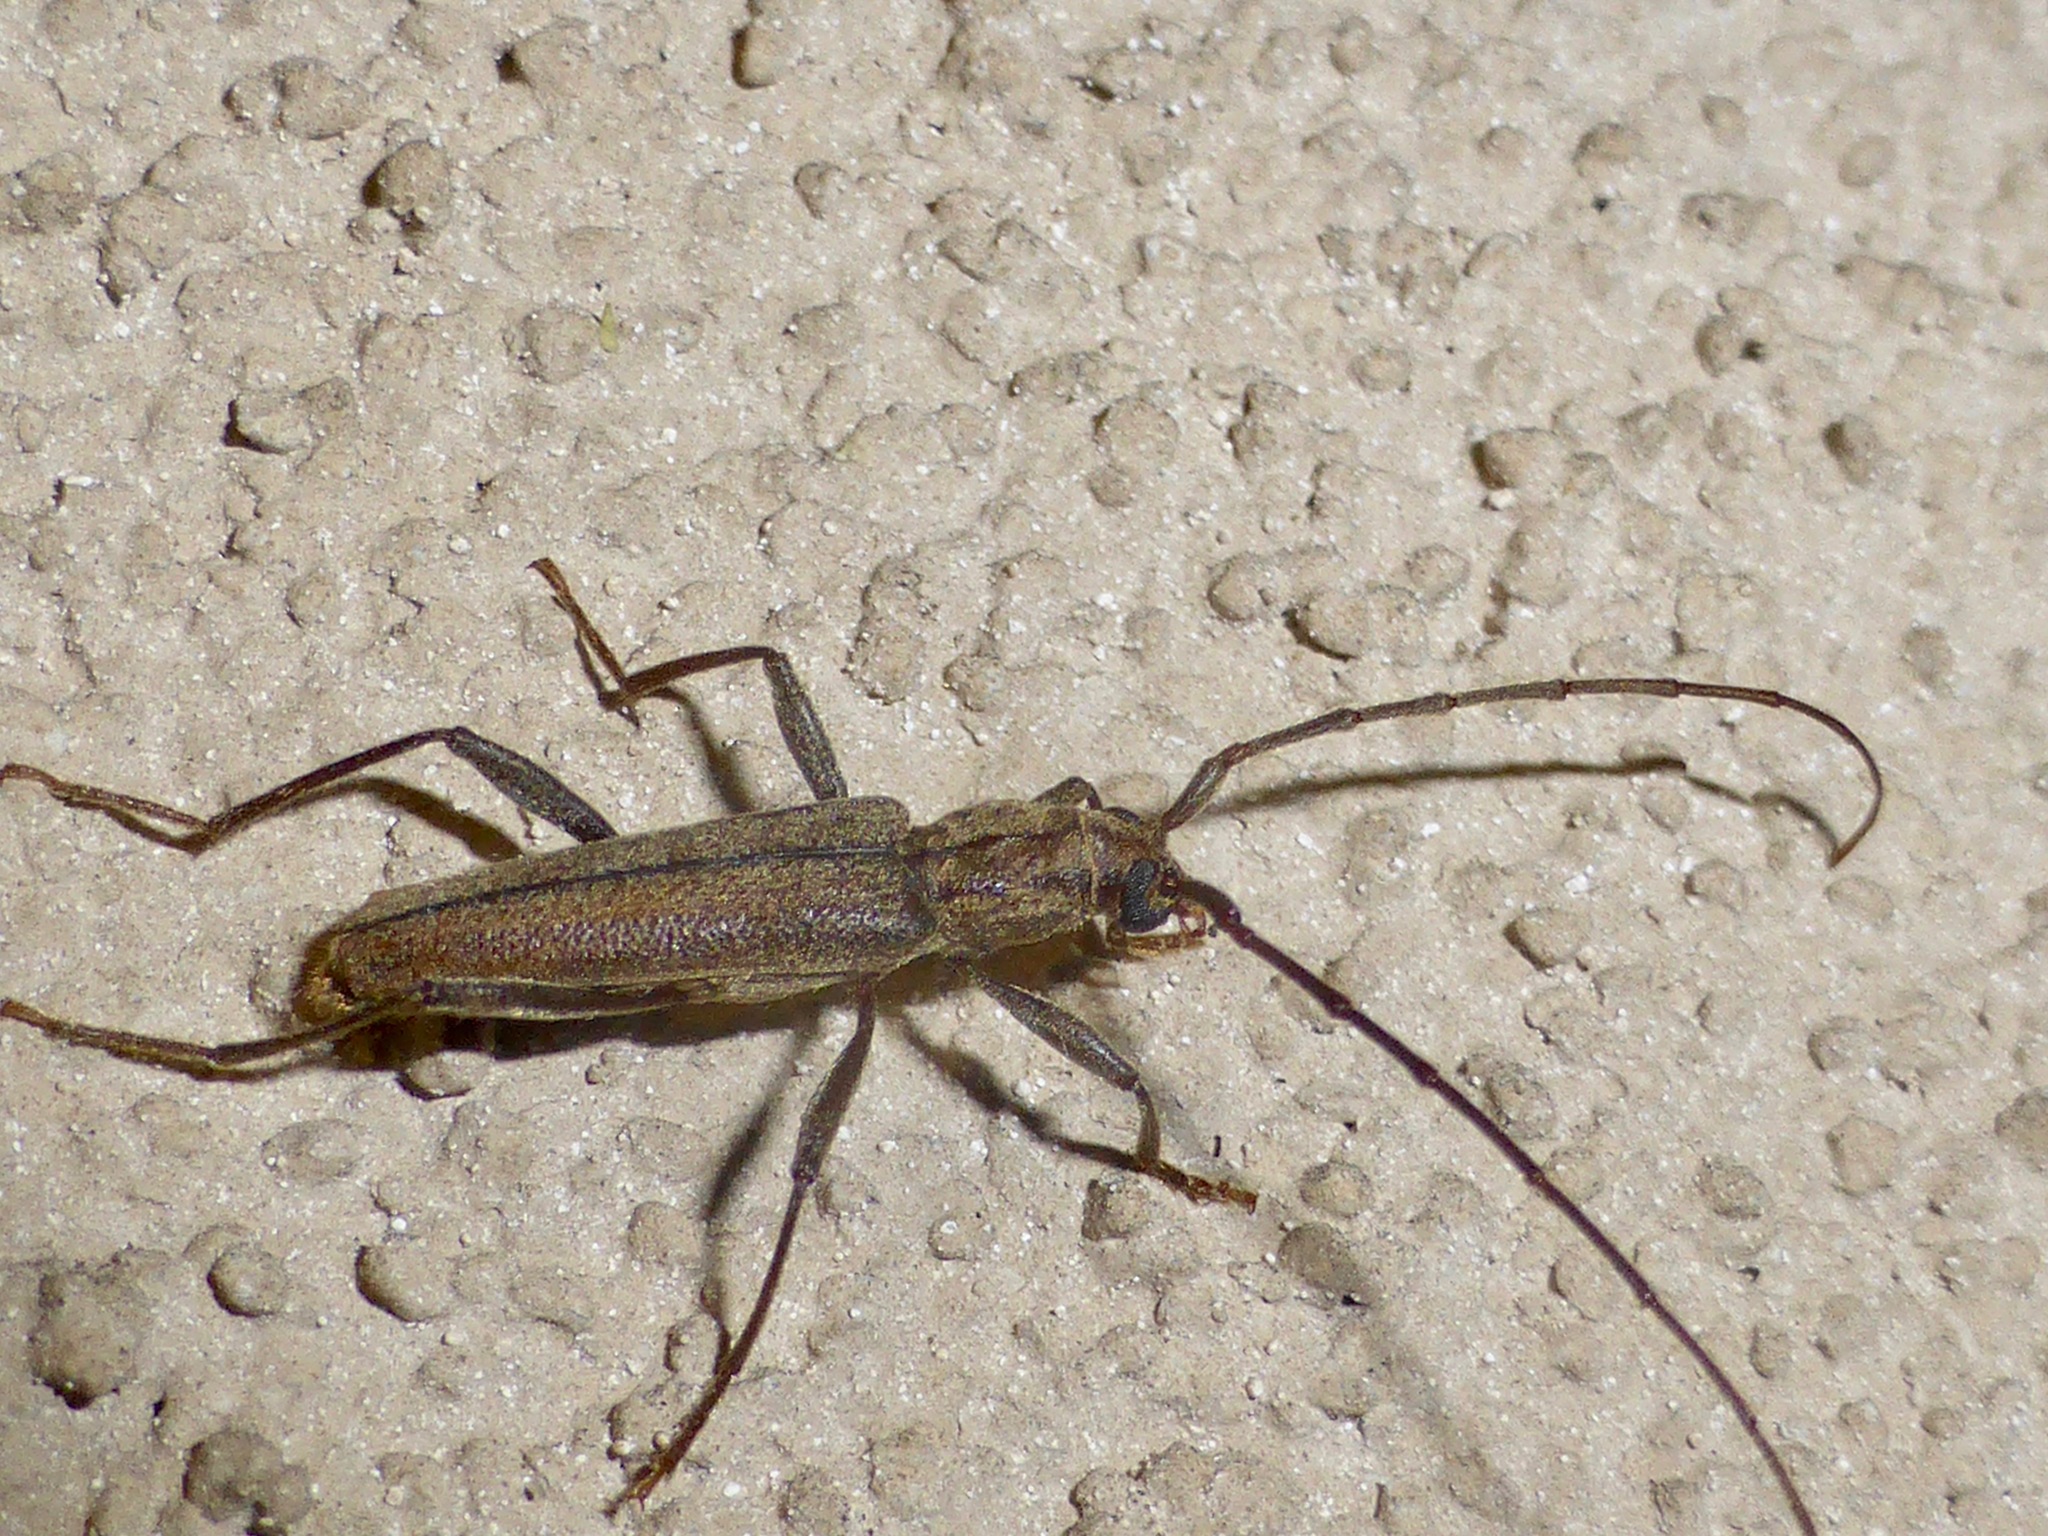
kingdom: Animalia
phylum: Arthropoda
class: Insecta
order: Coleoptera
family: Cerambycidae
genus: Icosium
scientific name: Icosium tomentosum
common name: Longhorn beetle
